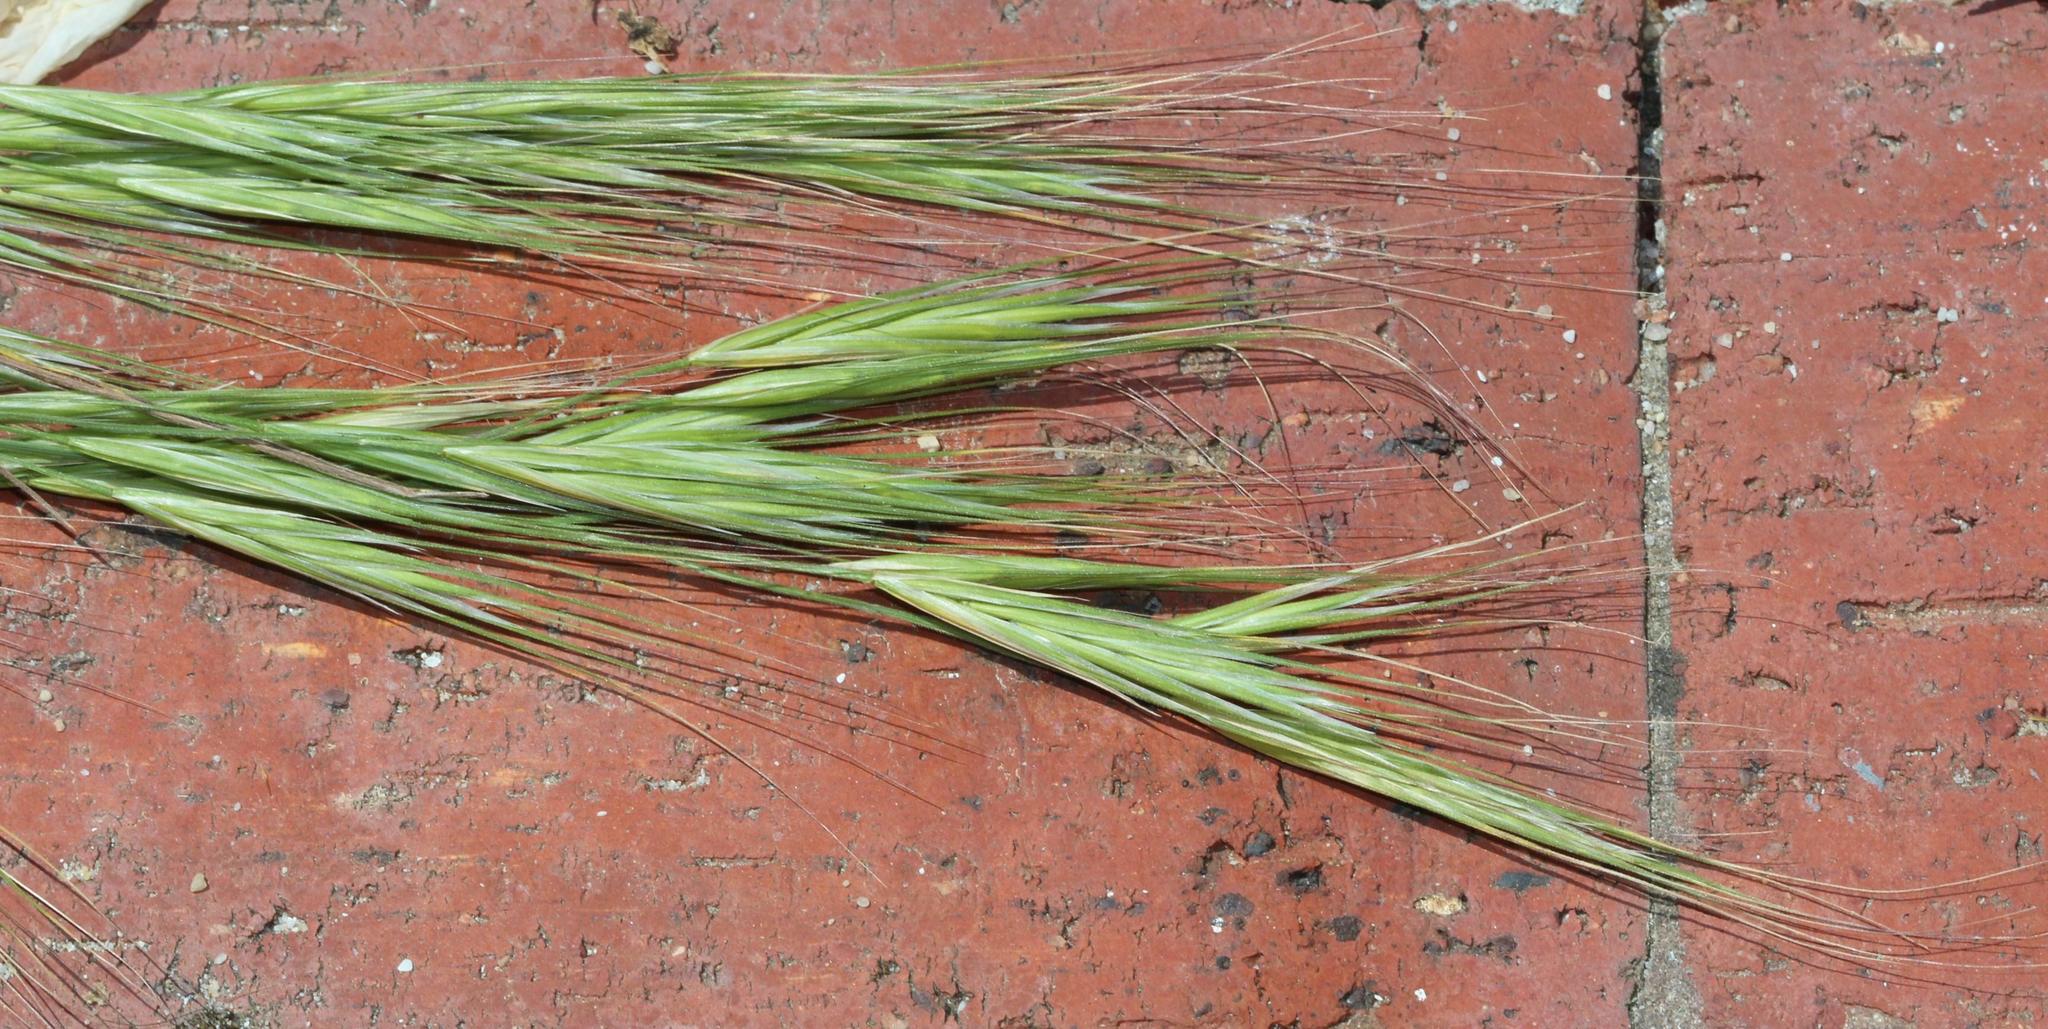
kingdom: Plantae
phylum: Tracheophyta
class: Liliopsida
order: Poales
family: Poaceae
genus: Bromus
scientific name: Bromus diandrus
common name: Ripgut brome
